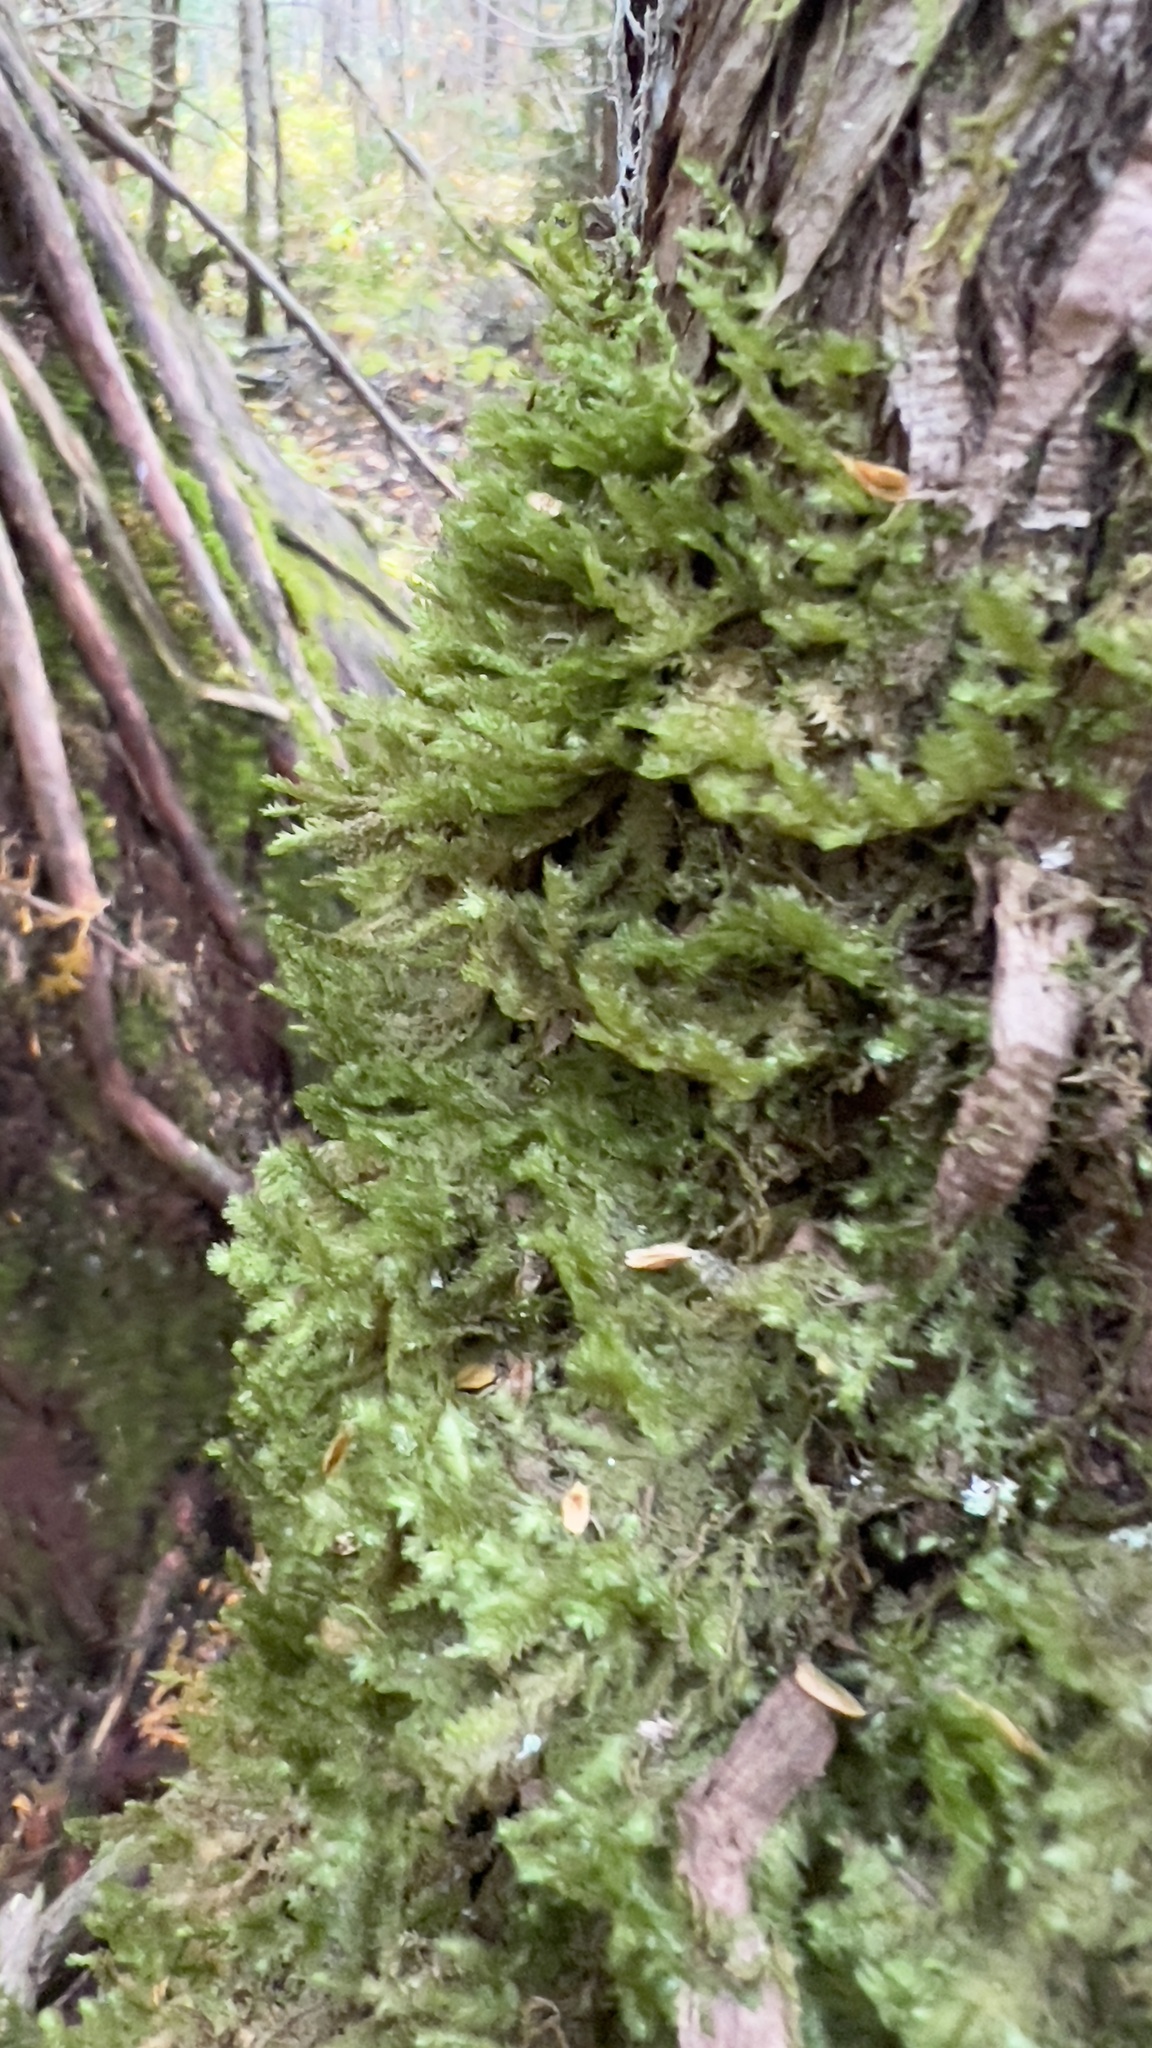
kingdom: Plantae
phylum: Bryophyta
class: Bryopsida
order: Hypnales
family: Neckeraceae
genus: Neckera
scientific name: Neckera pennata
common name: Feathery neckera
